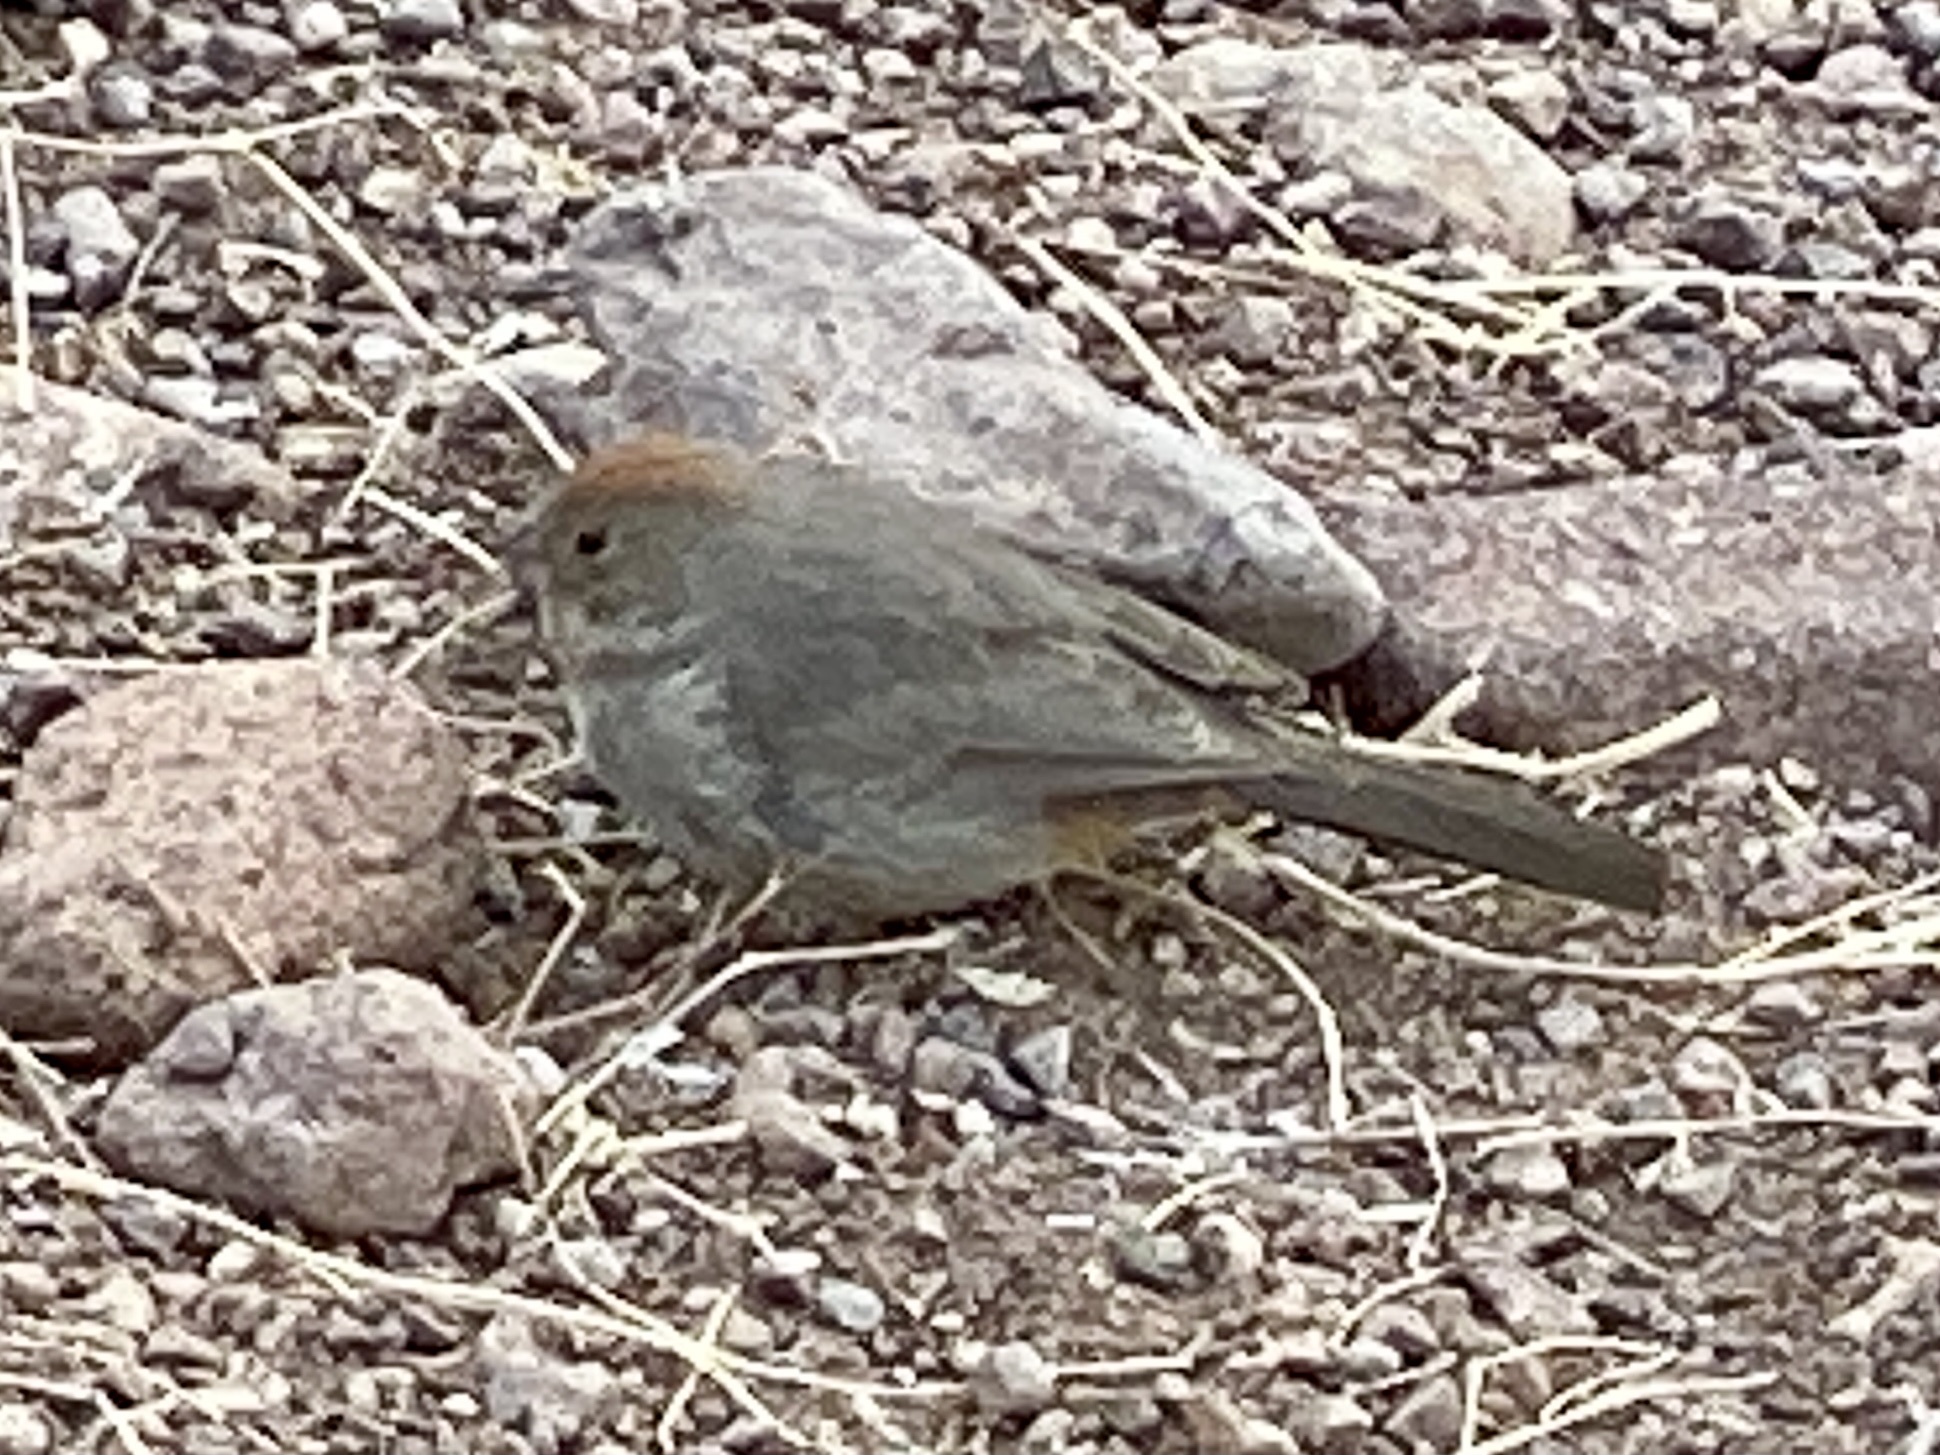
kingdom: Animalia
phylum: Chordata
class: Aves
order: Passeriformes
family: Passerellidae
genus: Melozone
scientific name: Melozone fusca
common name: Canyon towhee
